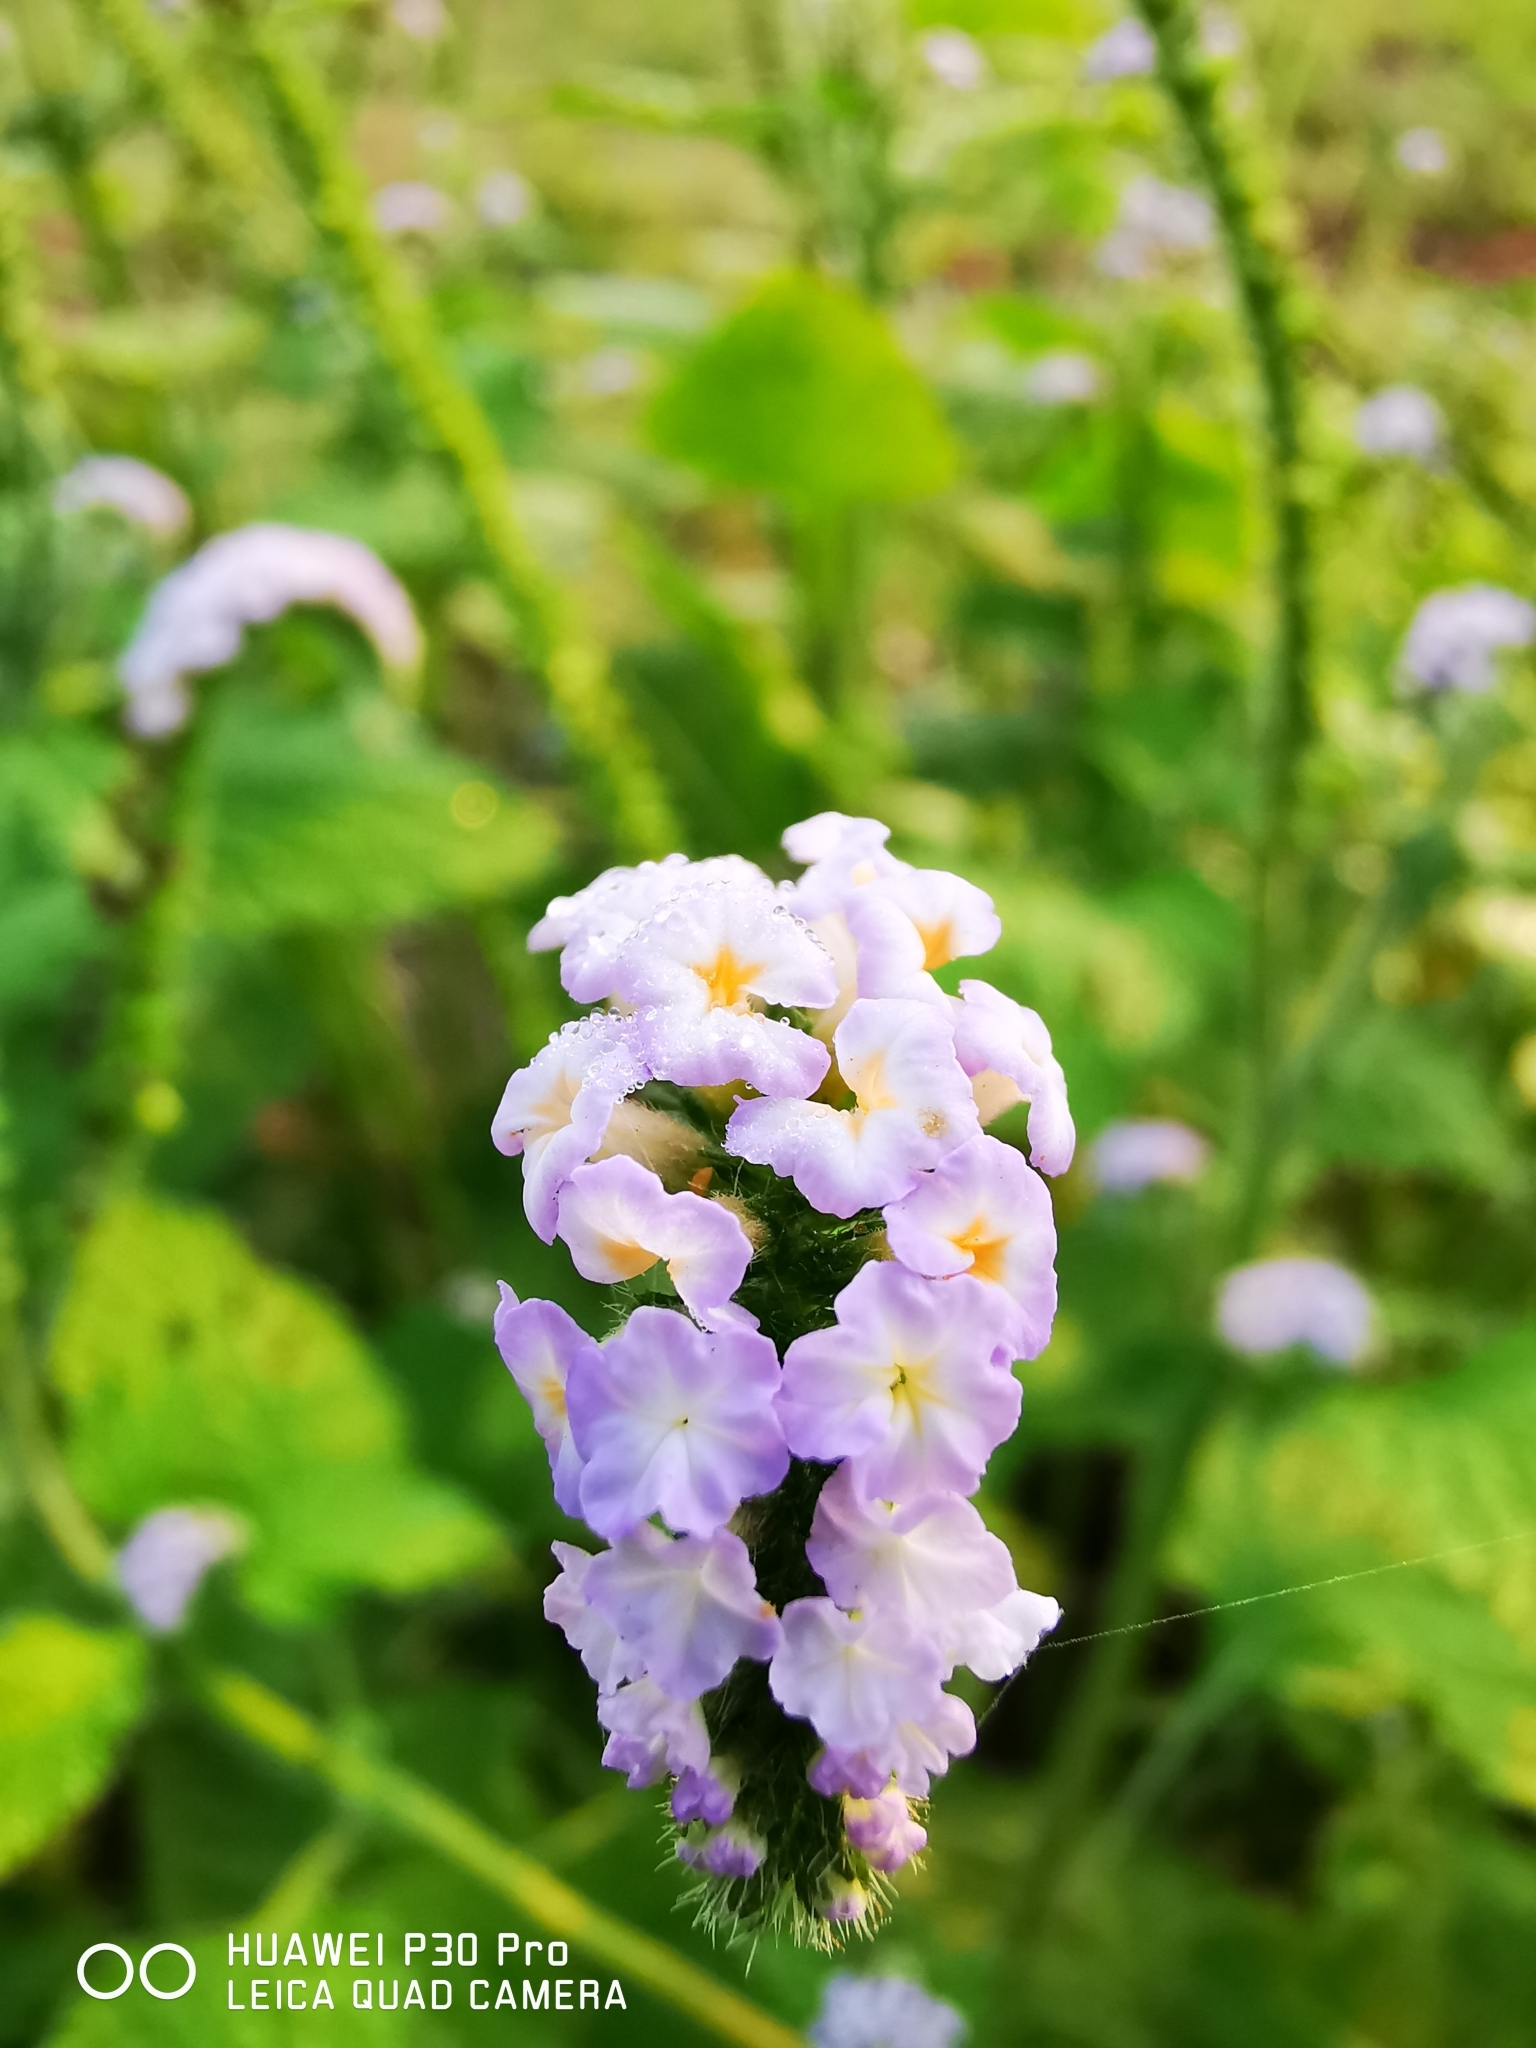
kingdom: Plantae
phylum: Tracheophyta
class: Magnoliopsida
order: Boraginales
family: Heliotropiaceae
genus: Heliotropium
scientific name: Heliotropium indicum
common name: Indian heliotrope
